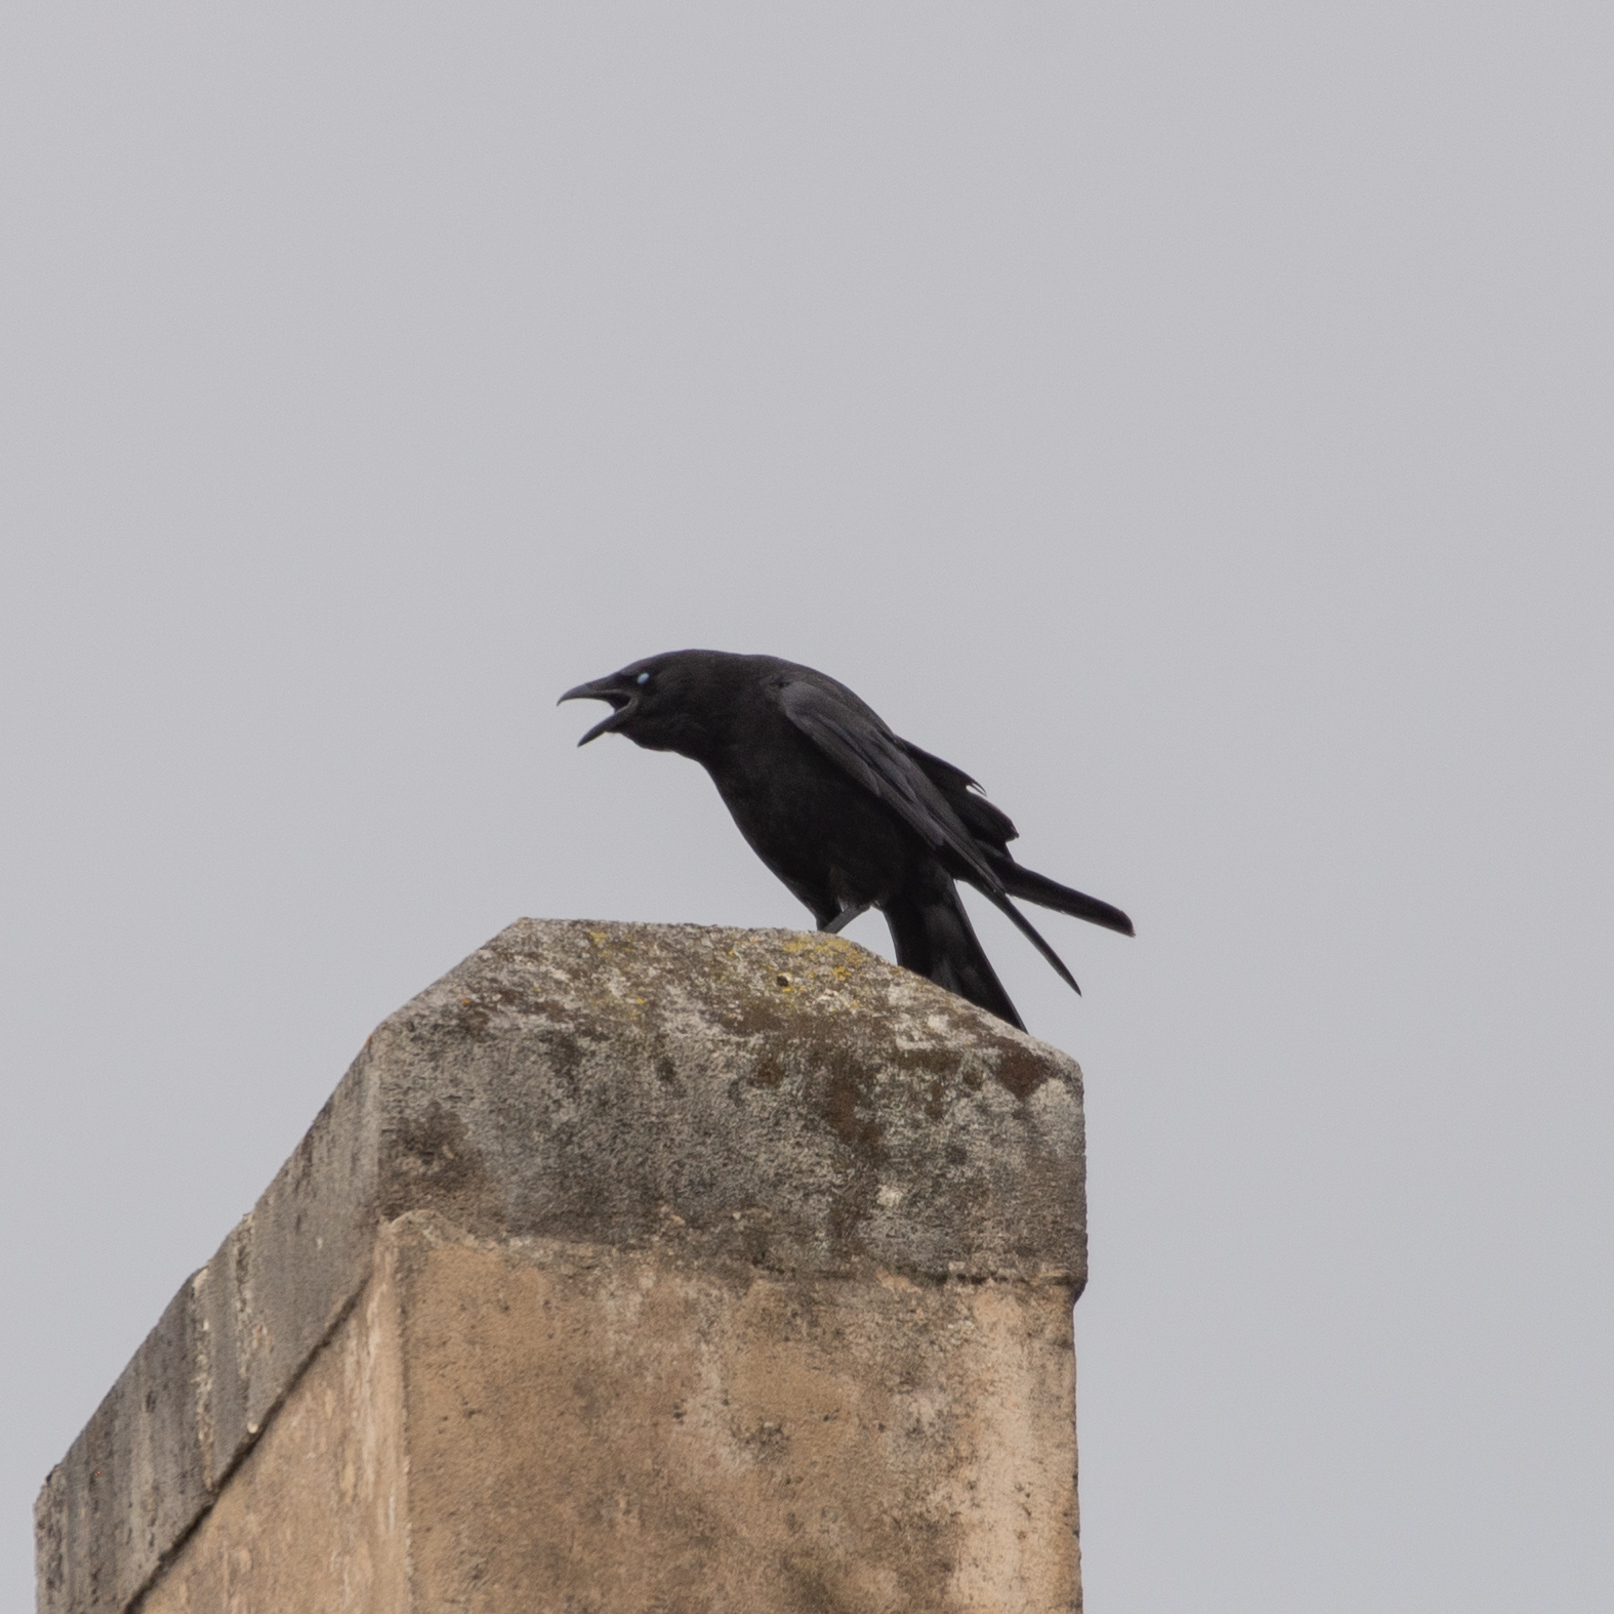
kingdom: Animalia
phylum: Chordata
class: Aves
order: Passeriformes
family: Corvidae
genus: Corvus
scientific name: Corvus corone
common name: Carrion crow
